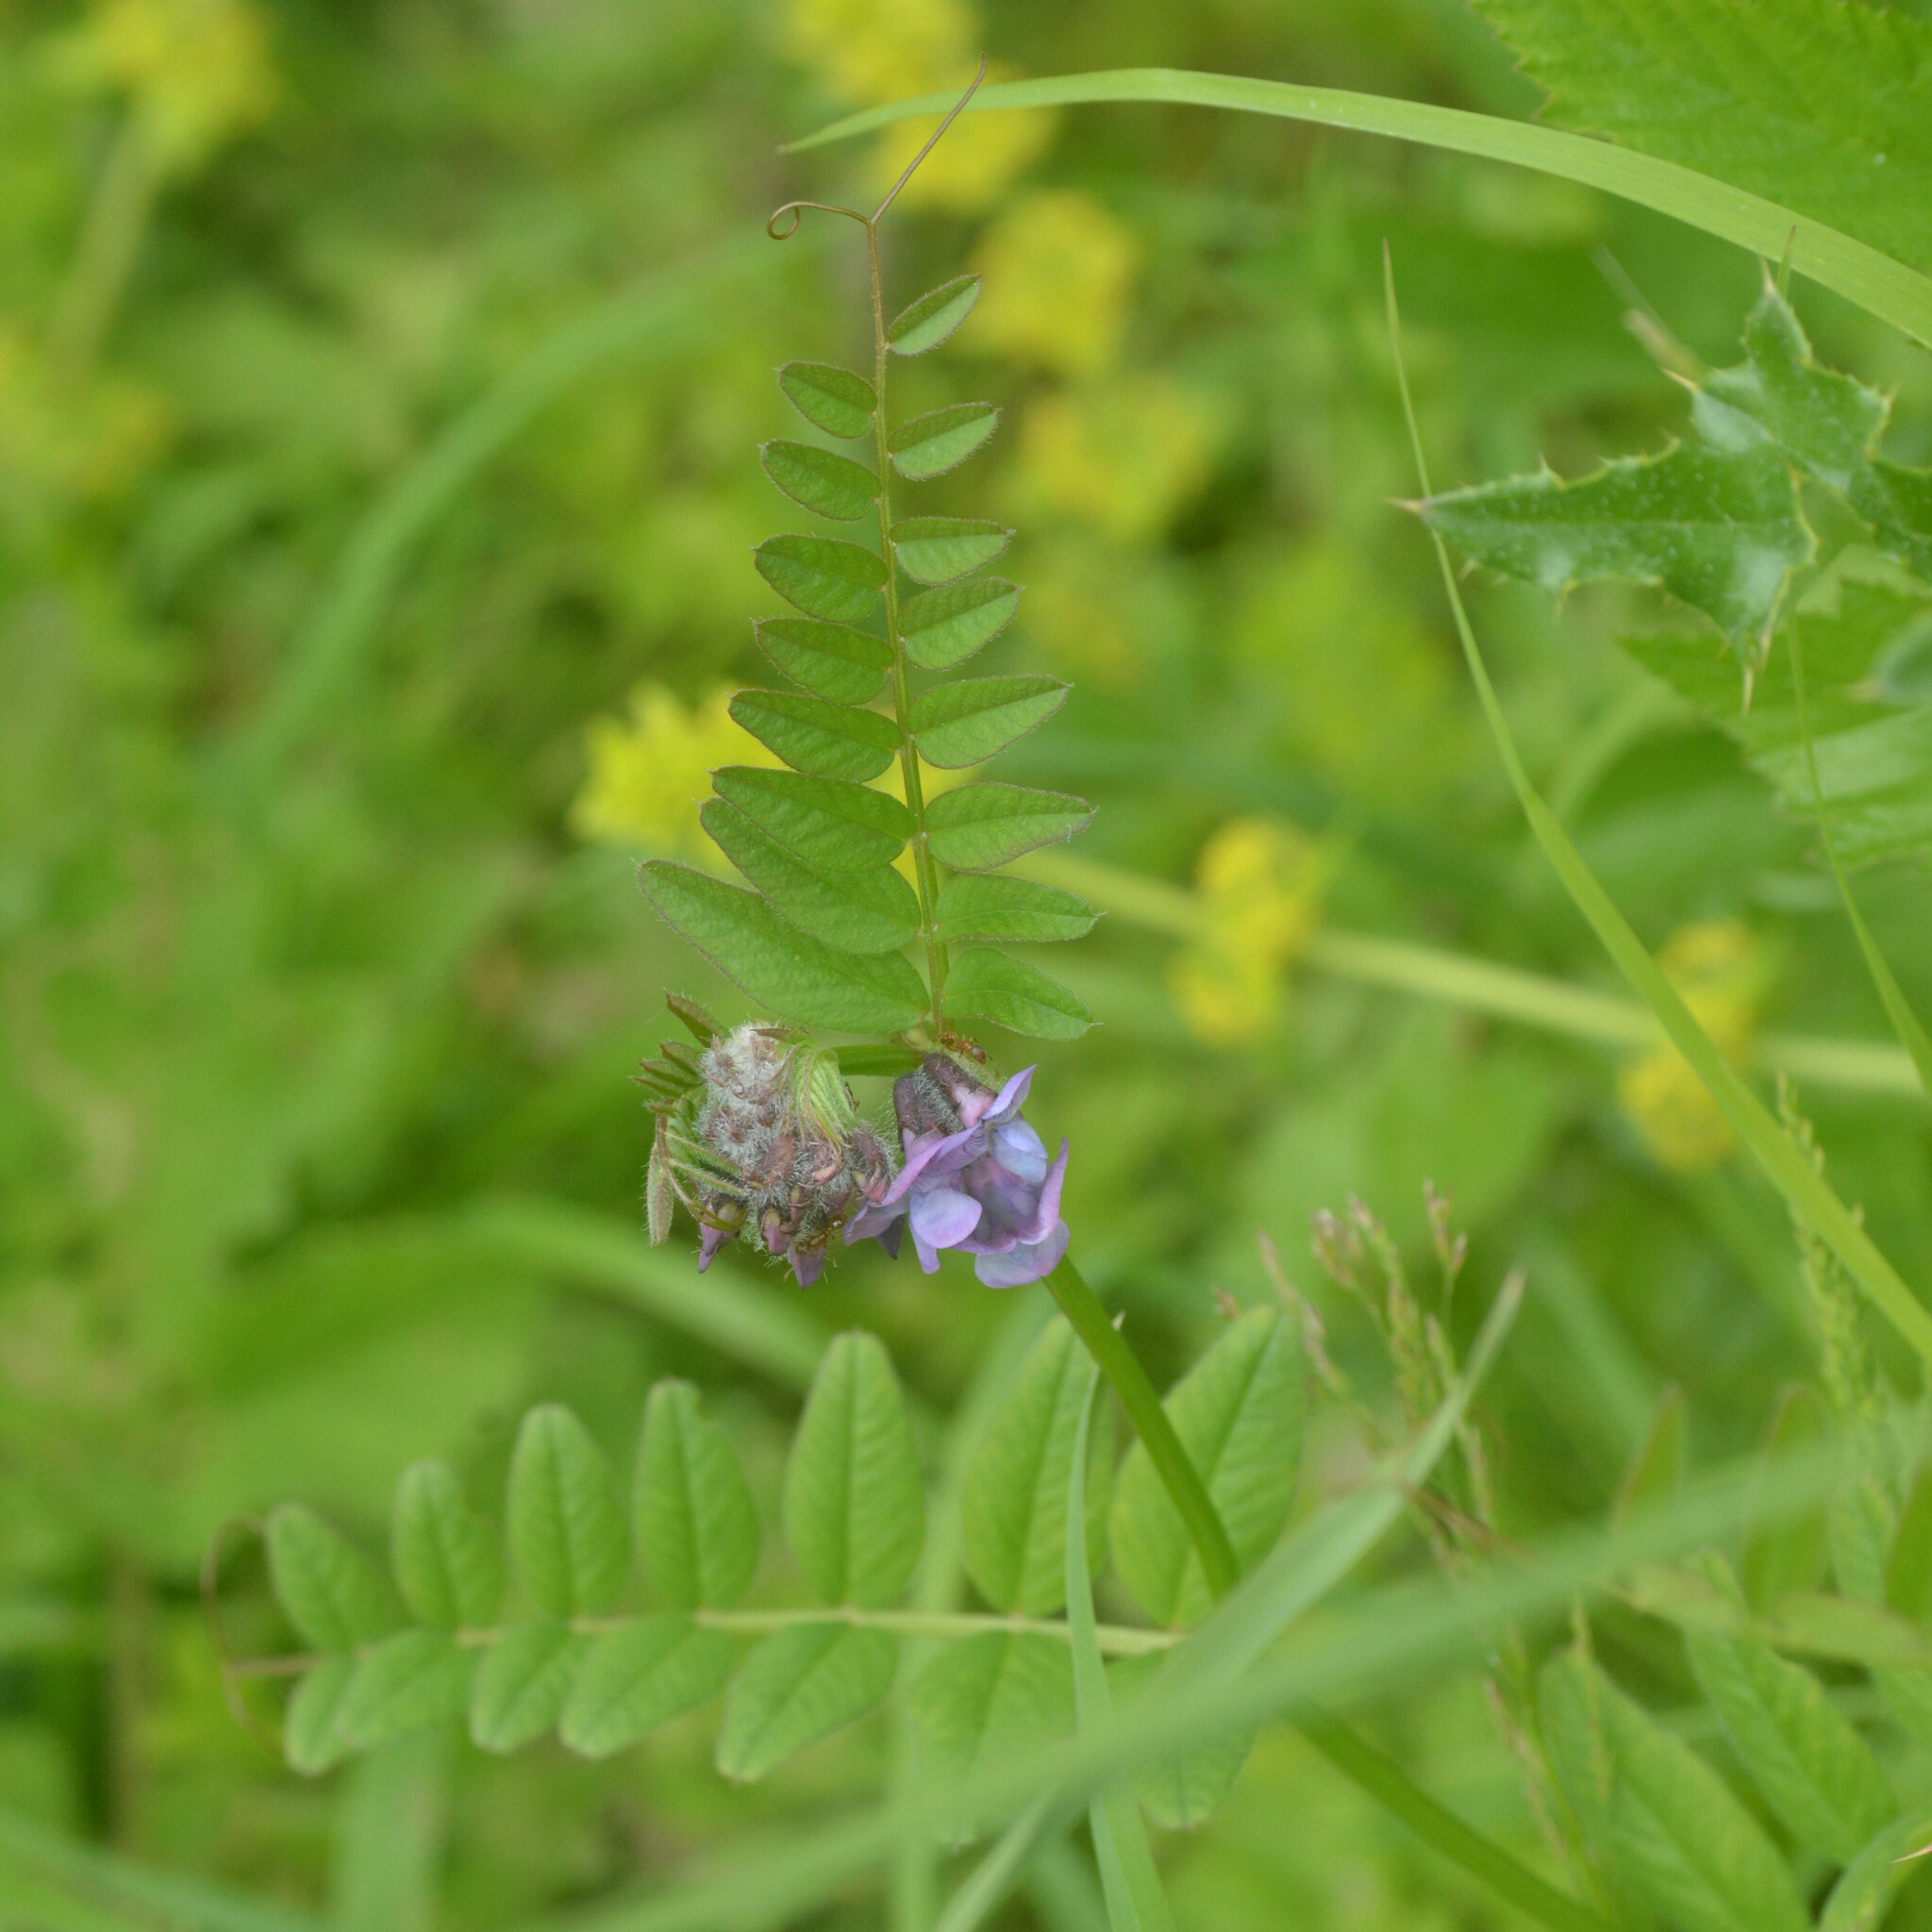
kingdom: Plantae
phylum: Tracheophyta
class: Magnoliopsida
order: Fabales
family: Fabaceae
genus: Vicia
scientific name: Vicia sepium
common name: Bush vetch
